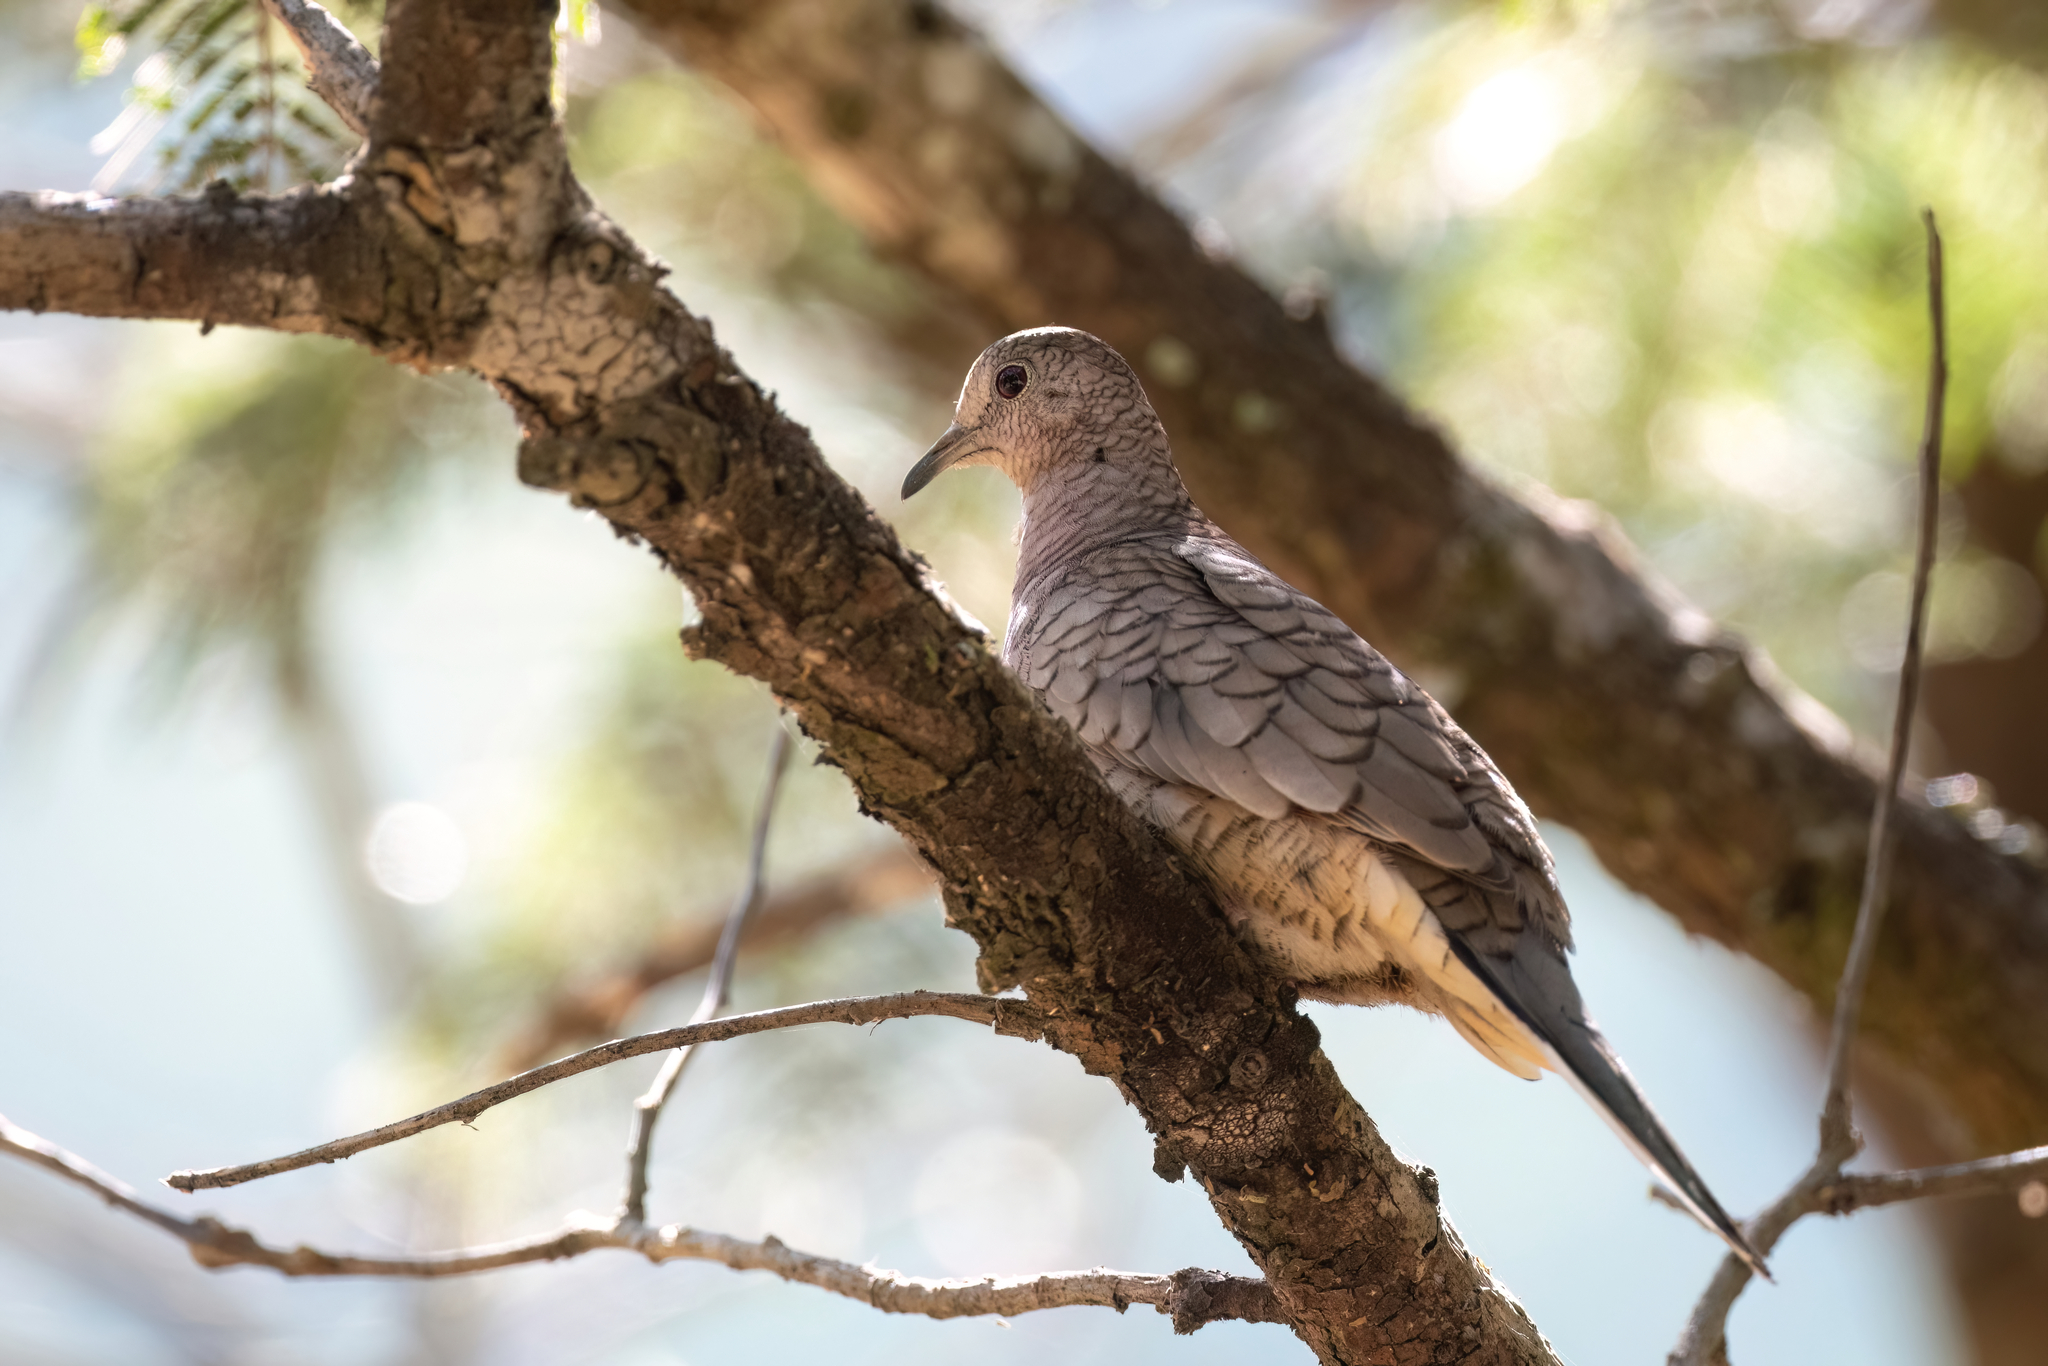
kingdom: Animalia
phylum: Chordata
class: Aves
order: Columbiformes
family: Columbidae
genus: Columbina
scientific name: Columbina inca
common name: Inca dove
